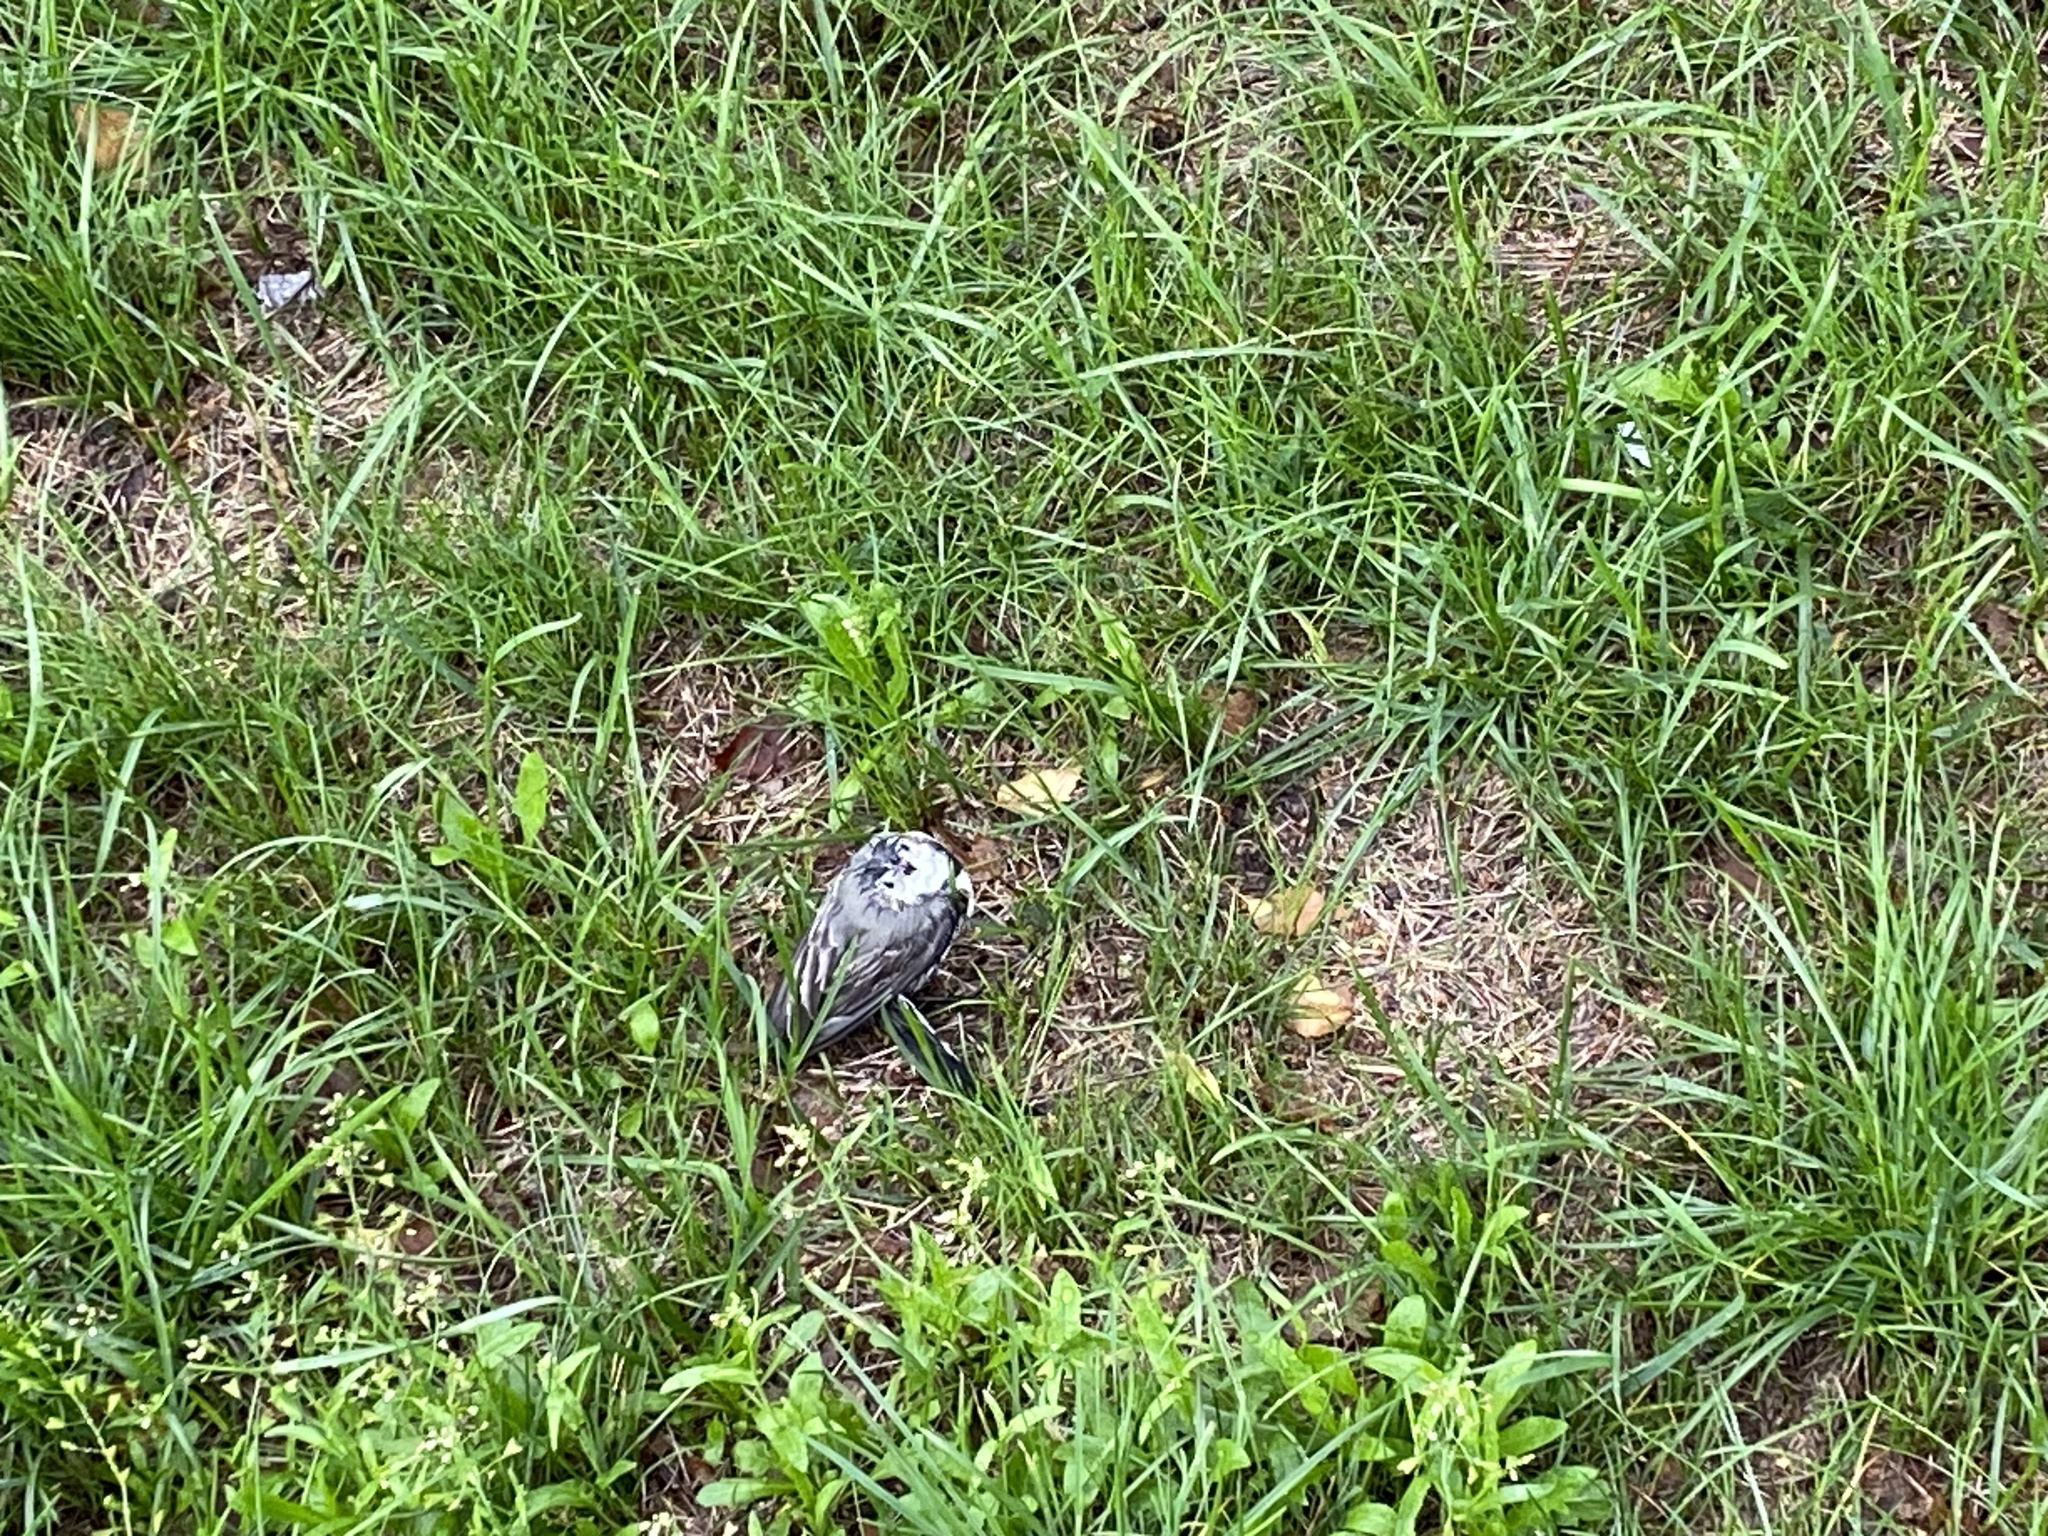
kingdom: Animalia
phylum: Chordata
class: Aves
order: Passeriformes
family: Motacillidae
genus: Motacilla
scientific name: Motacilla alba
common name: White wagtail
